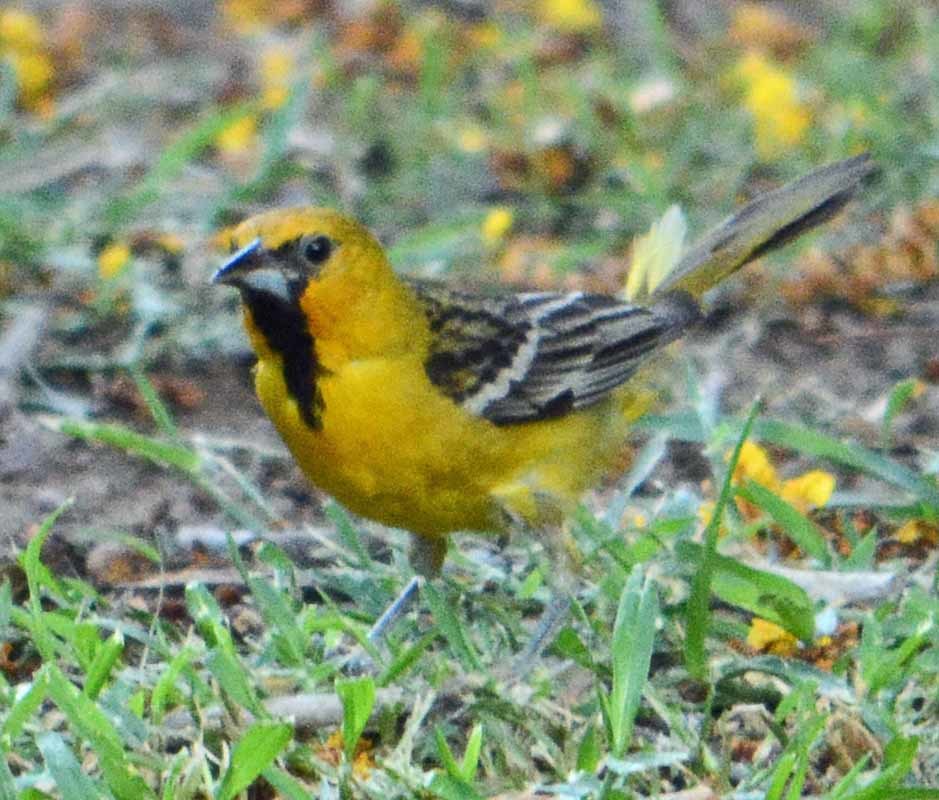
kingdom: Animalia
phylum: Chordata
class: Aves
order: Passeriformes
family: Icteridae
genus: Icterus
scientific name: Icterus pustulatus
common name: Streak-backed oriole
